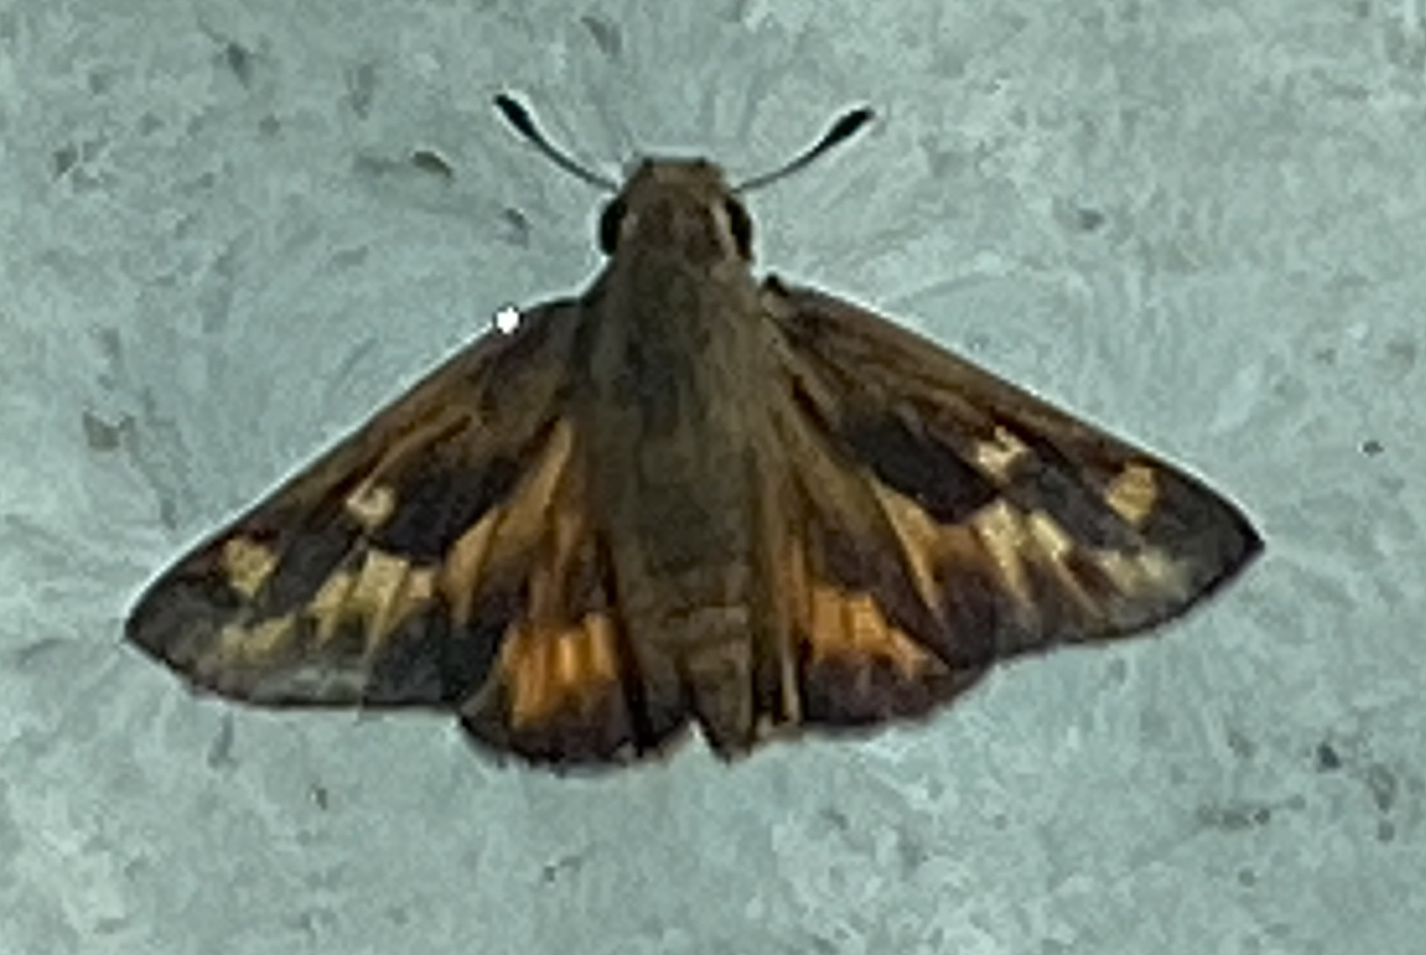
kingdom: Animalia
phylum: Arthropoda
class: Insecta
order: Lepidoptera
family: Hesperiidae
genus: Hylephila
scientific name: Hylephila phyleus
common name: Fiery skipper
